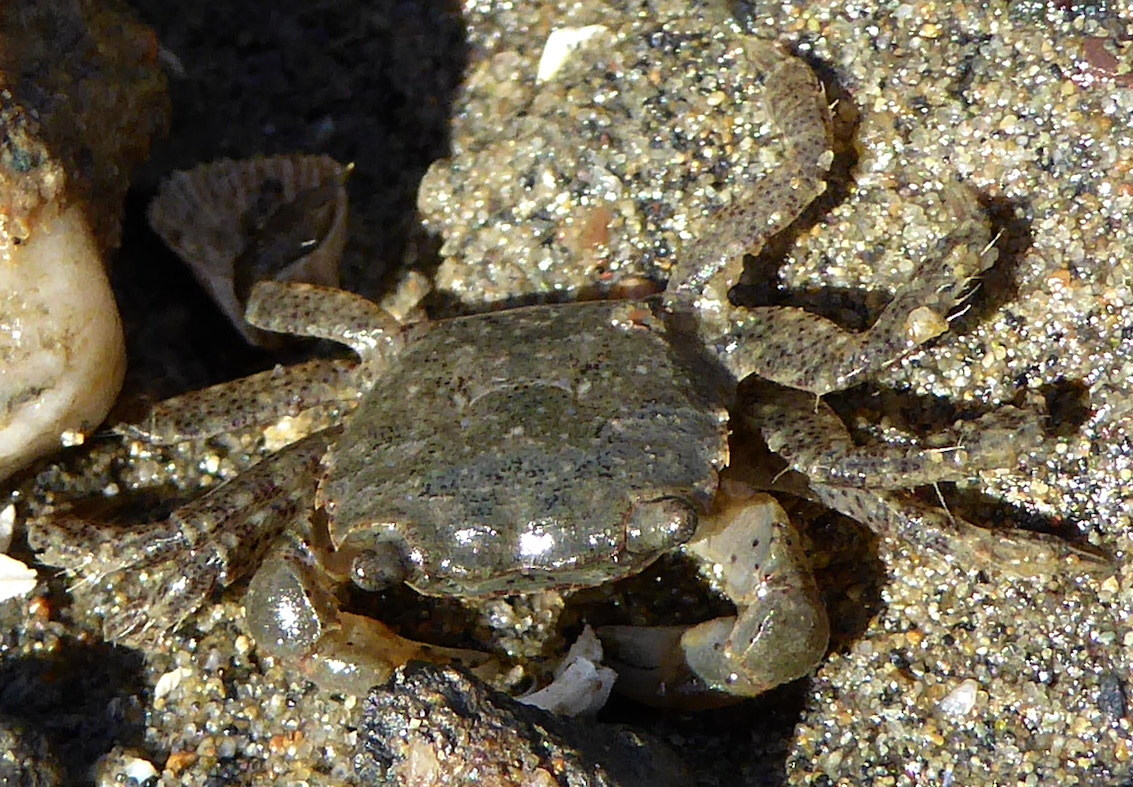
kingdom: Animalia
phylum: Arthropoda
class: Malacostraca
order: Decapoda
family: Varunidae
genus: Hemigrapsus
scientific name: Hemigrapsus oregonensis
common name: Yellow shore crab
